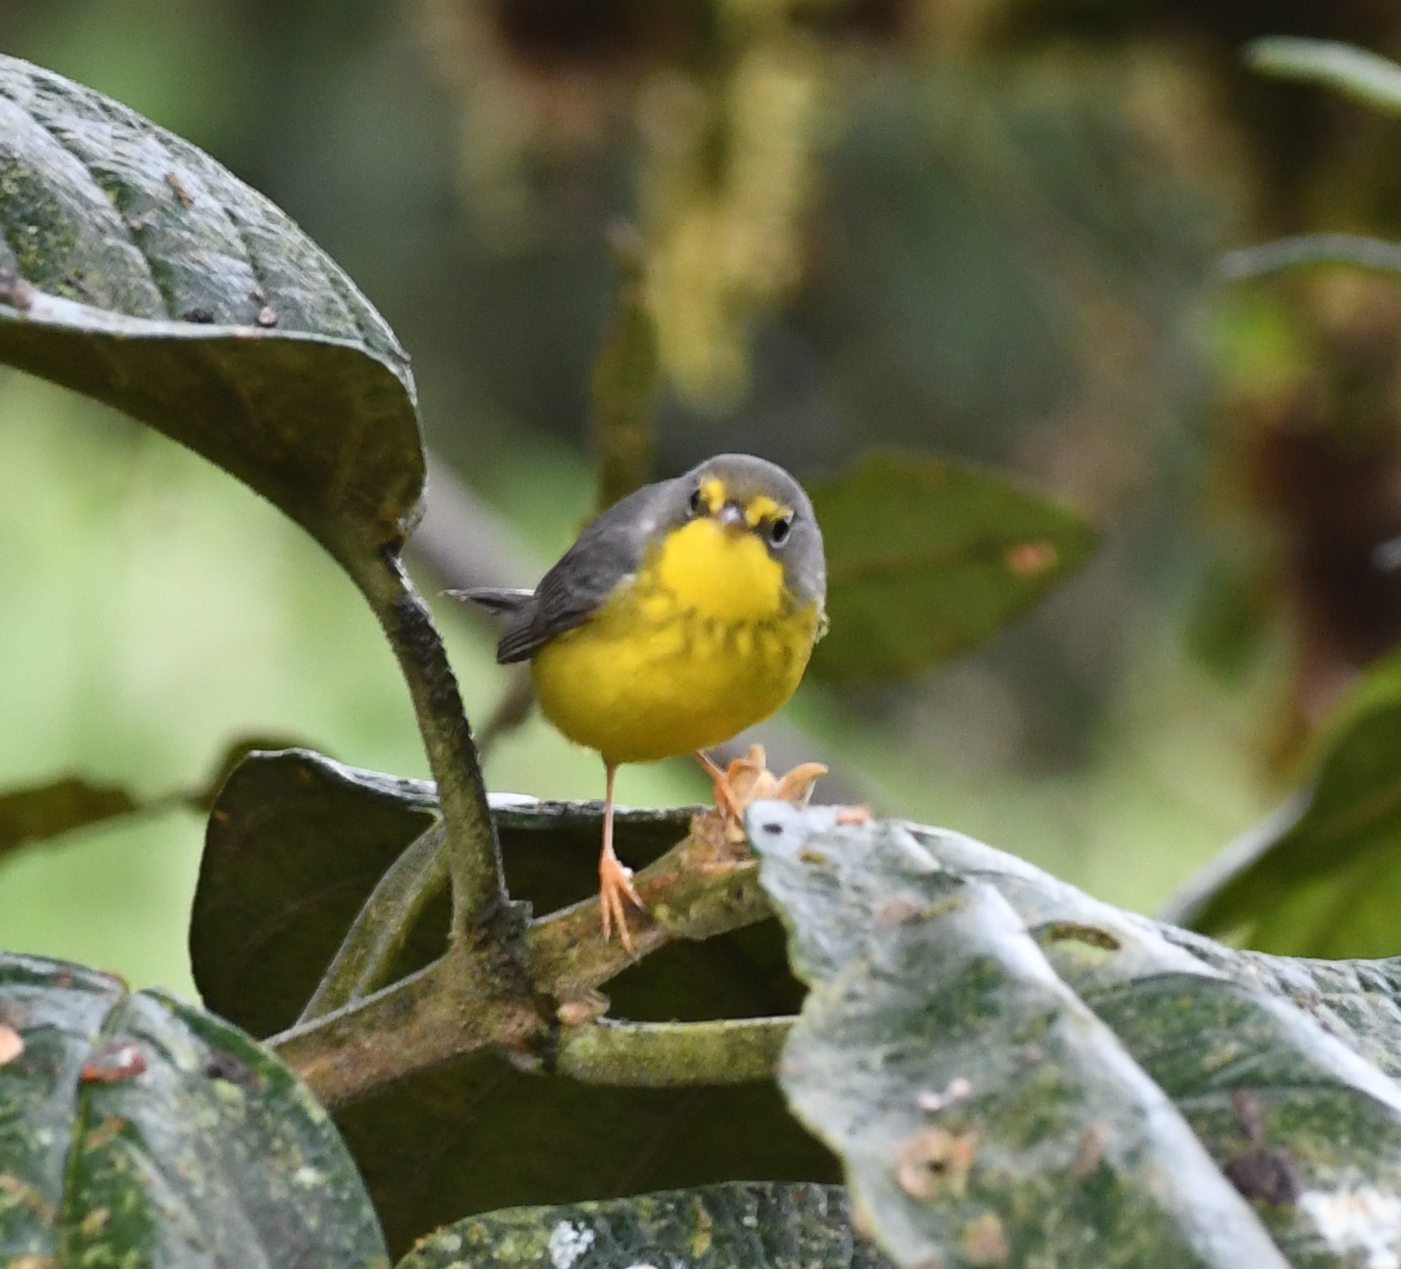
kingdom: Animalia
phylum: Chordata
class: Aves
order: Passeriformes
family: Parulidae
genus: Cardellina
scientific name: Cardellina canadensis
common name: Canada warbler
